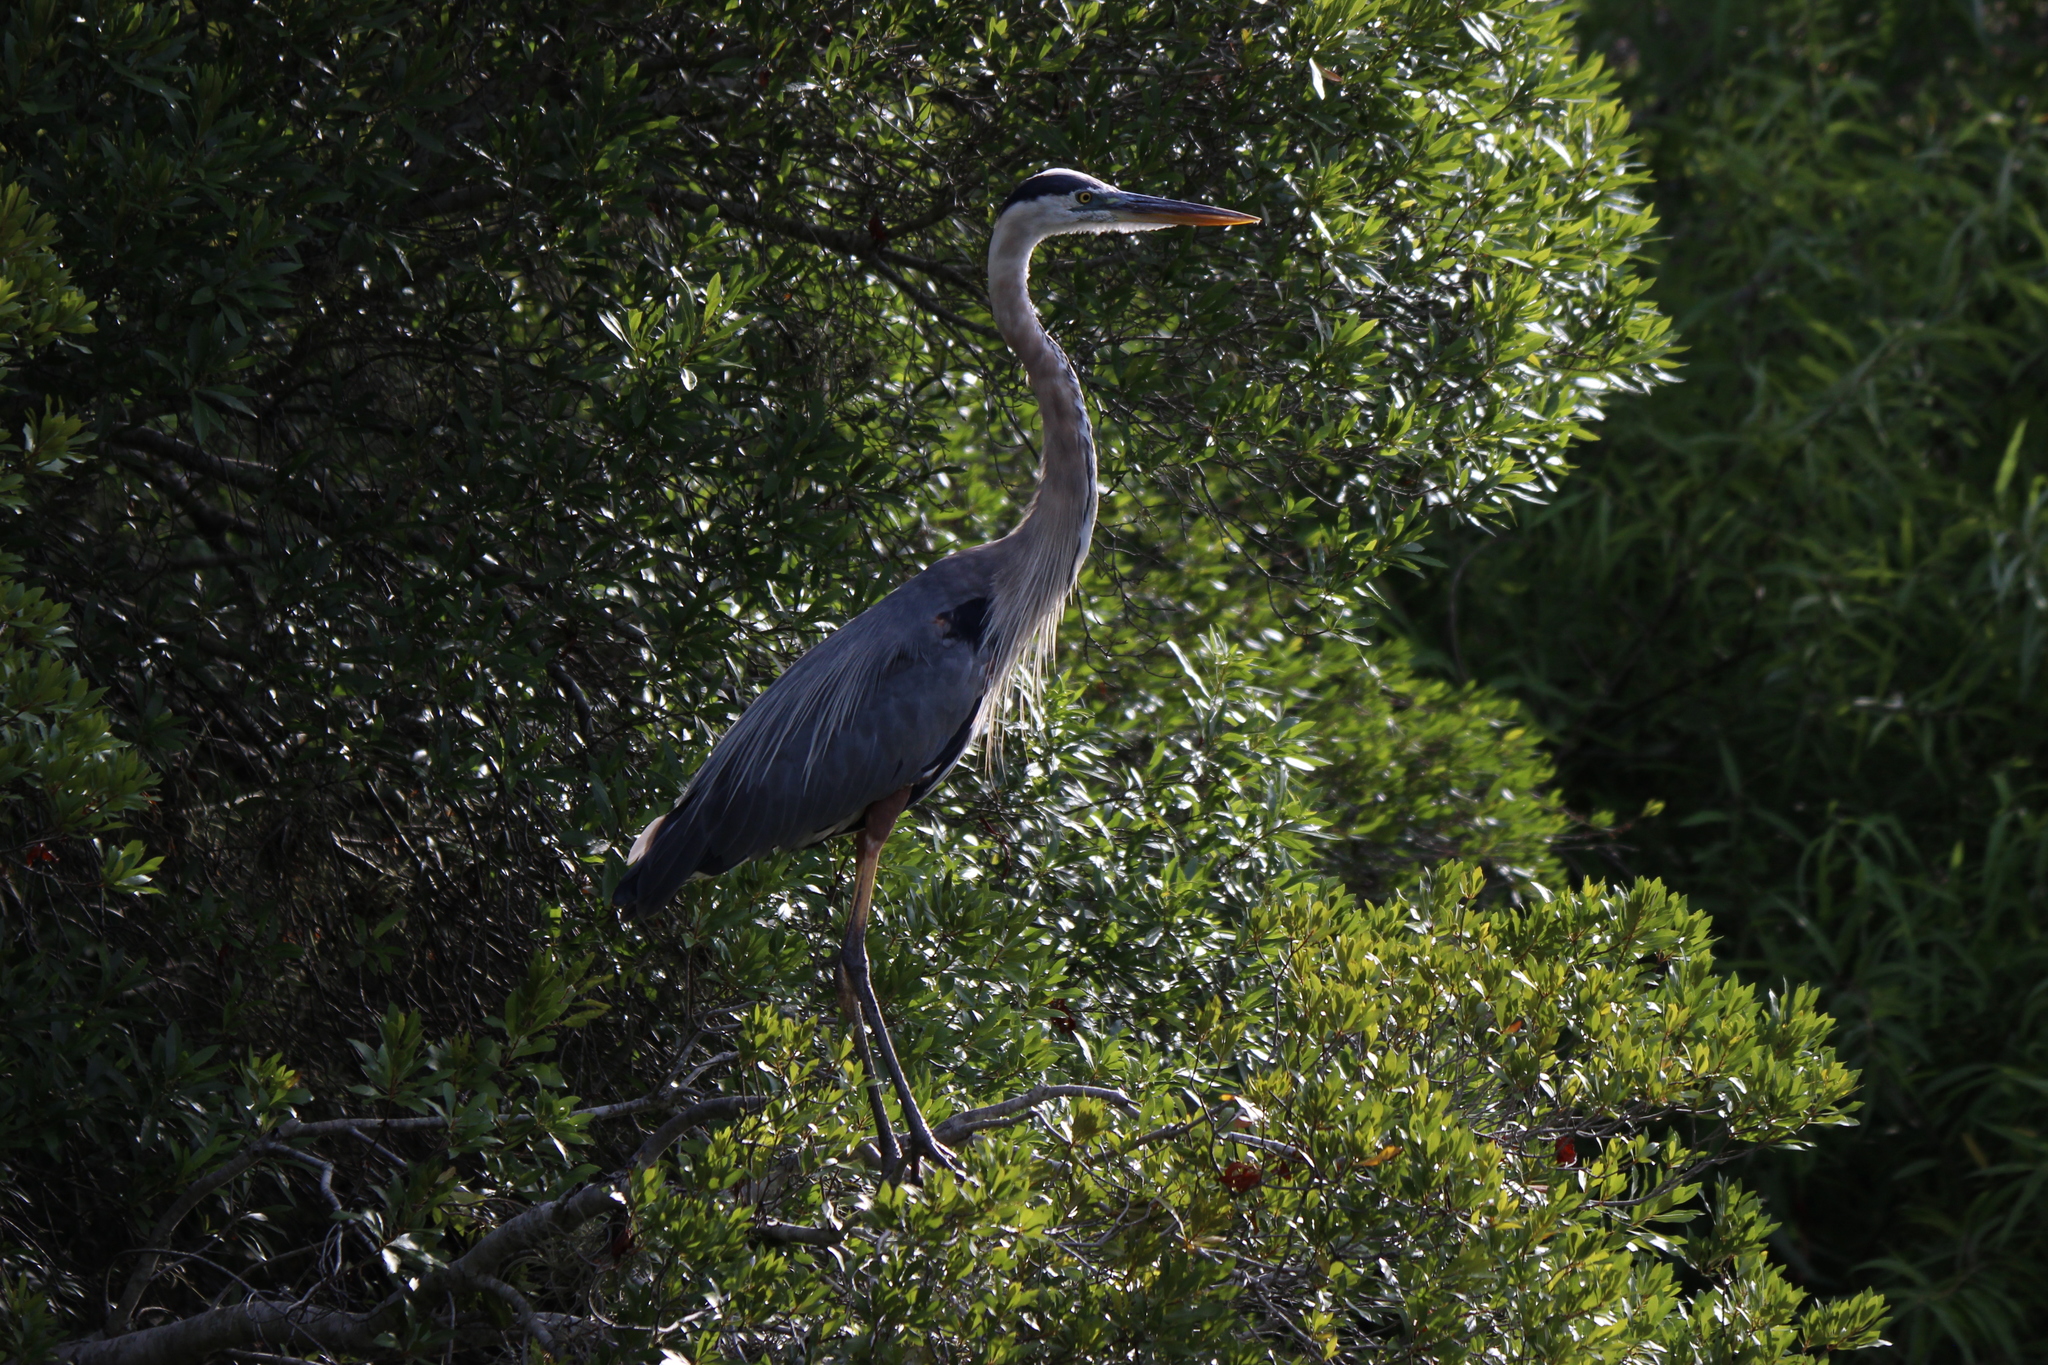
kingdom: Animalia
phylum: Chordata
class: Aves
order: Pelecaniformes
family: Ardeidae
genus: Ardea
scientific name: Ardea herodias
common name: Great blue heron
